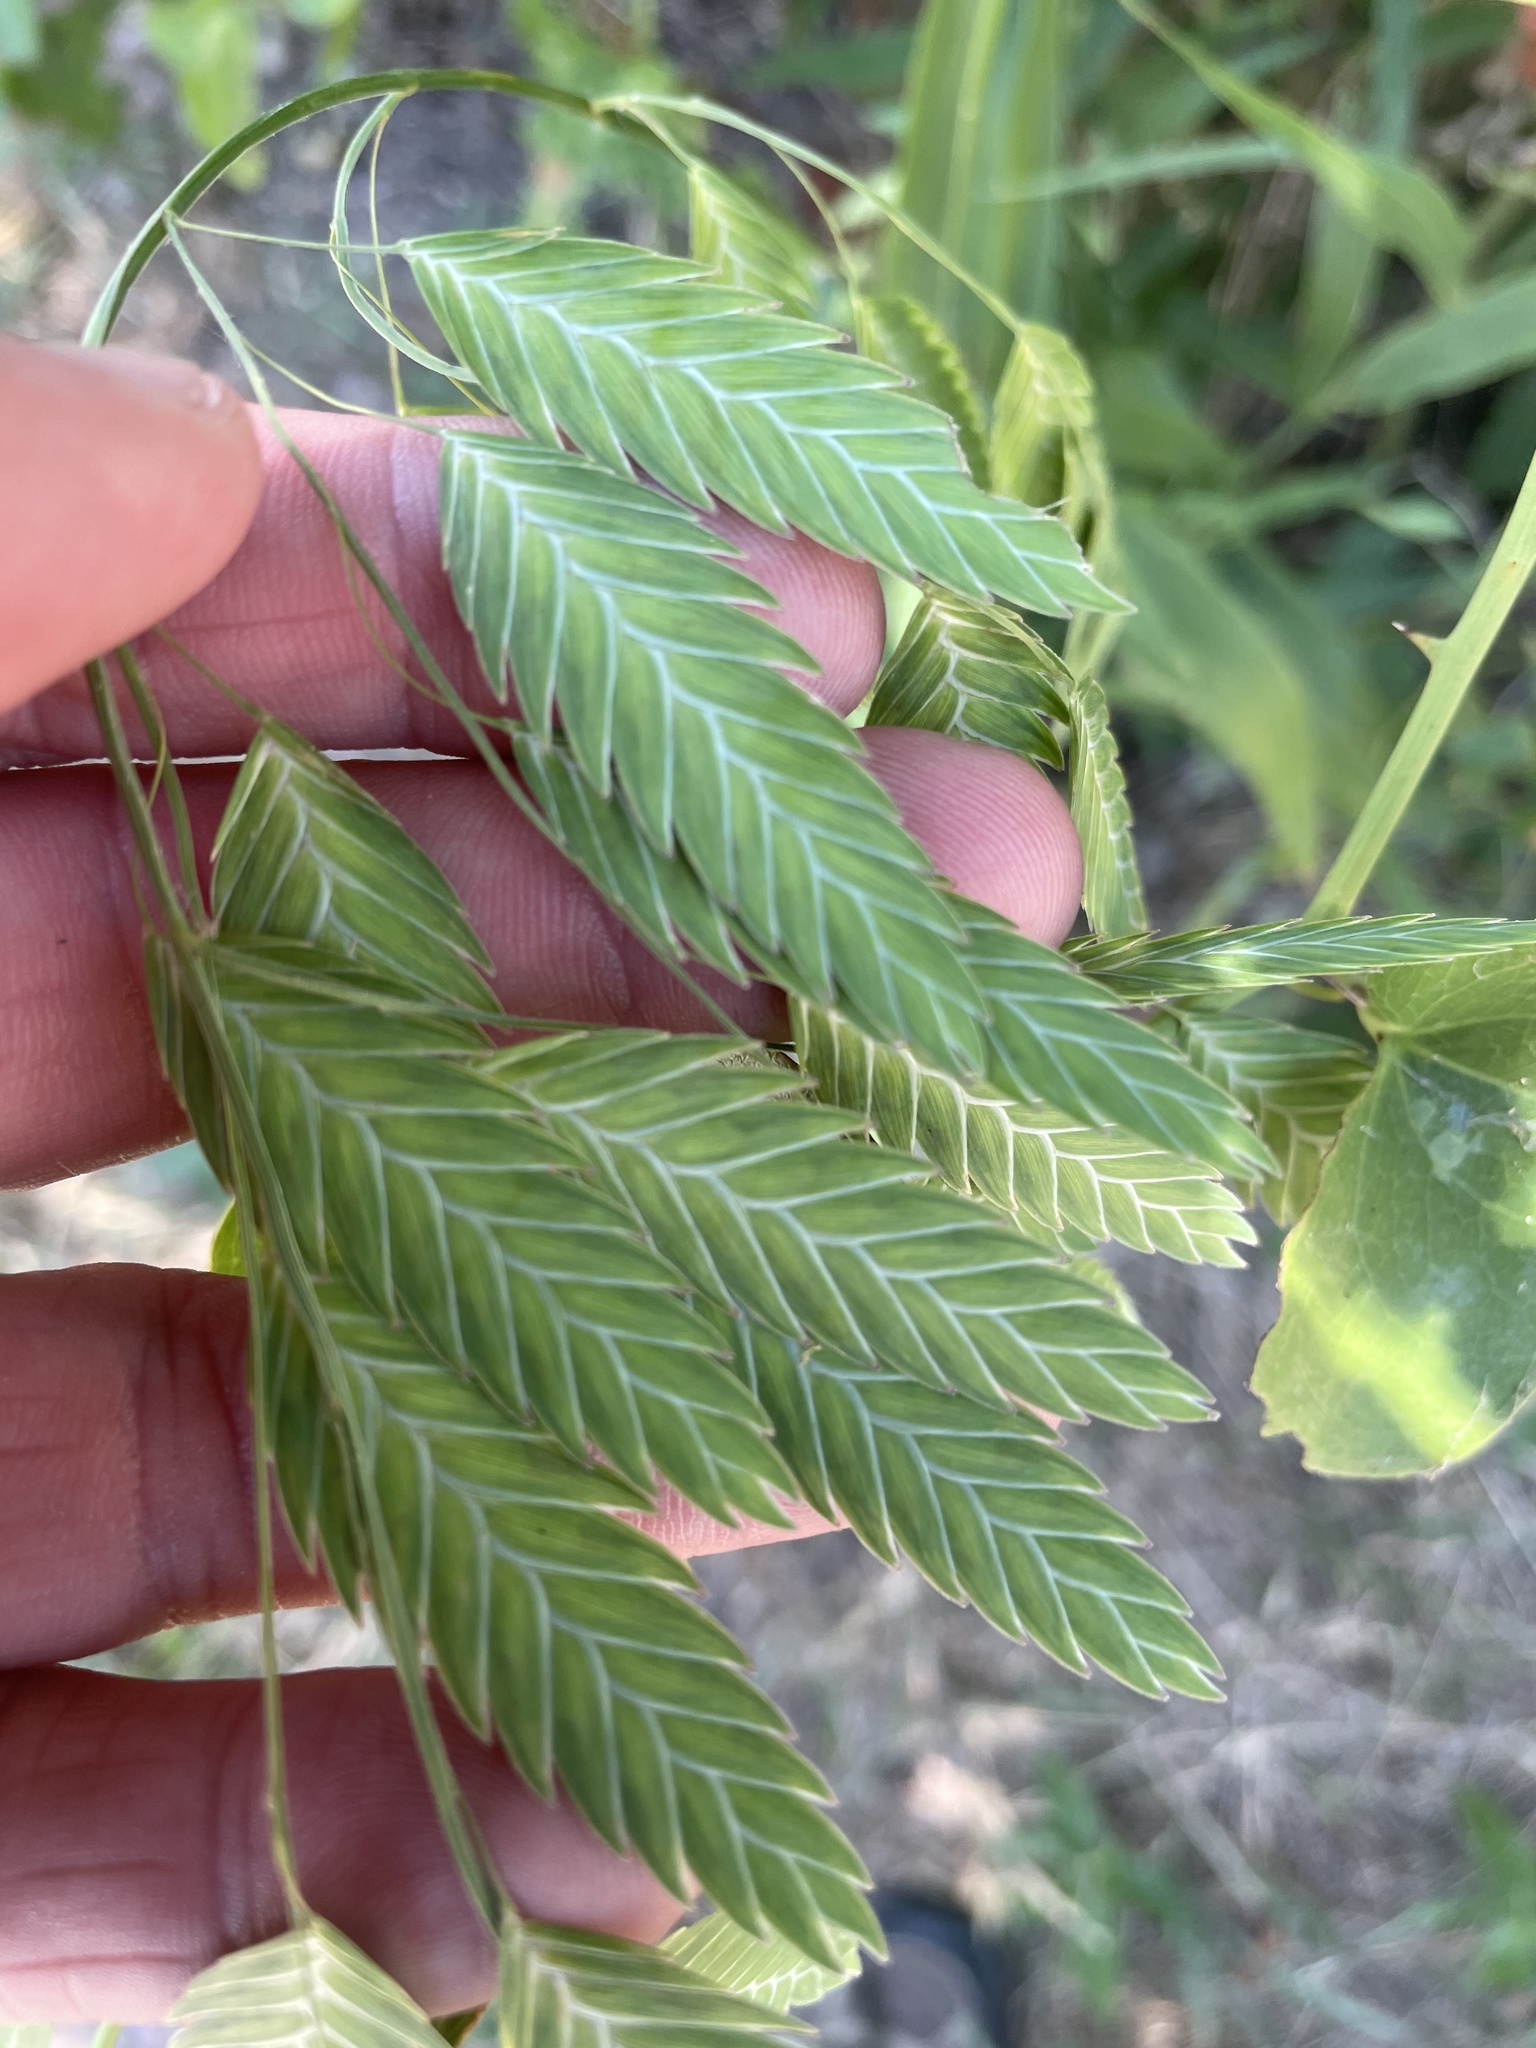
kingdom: Plantae
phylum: Tracheophyta
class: Liliopsida
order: Poales
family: Poaceae
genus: Chasmanthium
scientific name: Chasmanthium latifolium
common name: Broad-leaved chasmanthium
